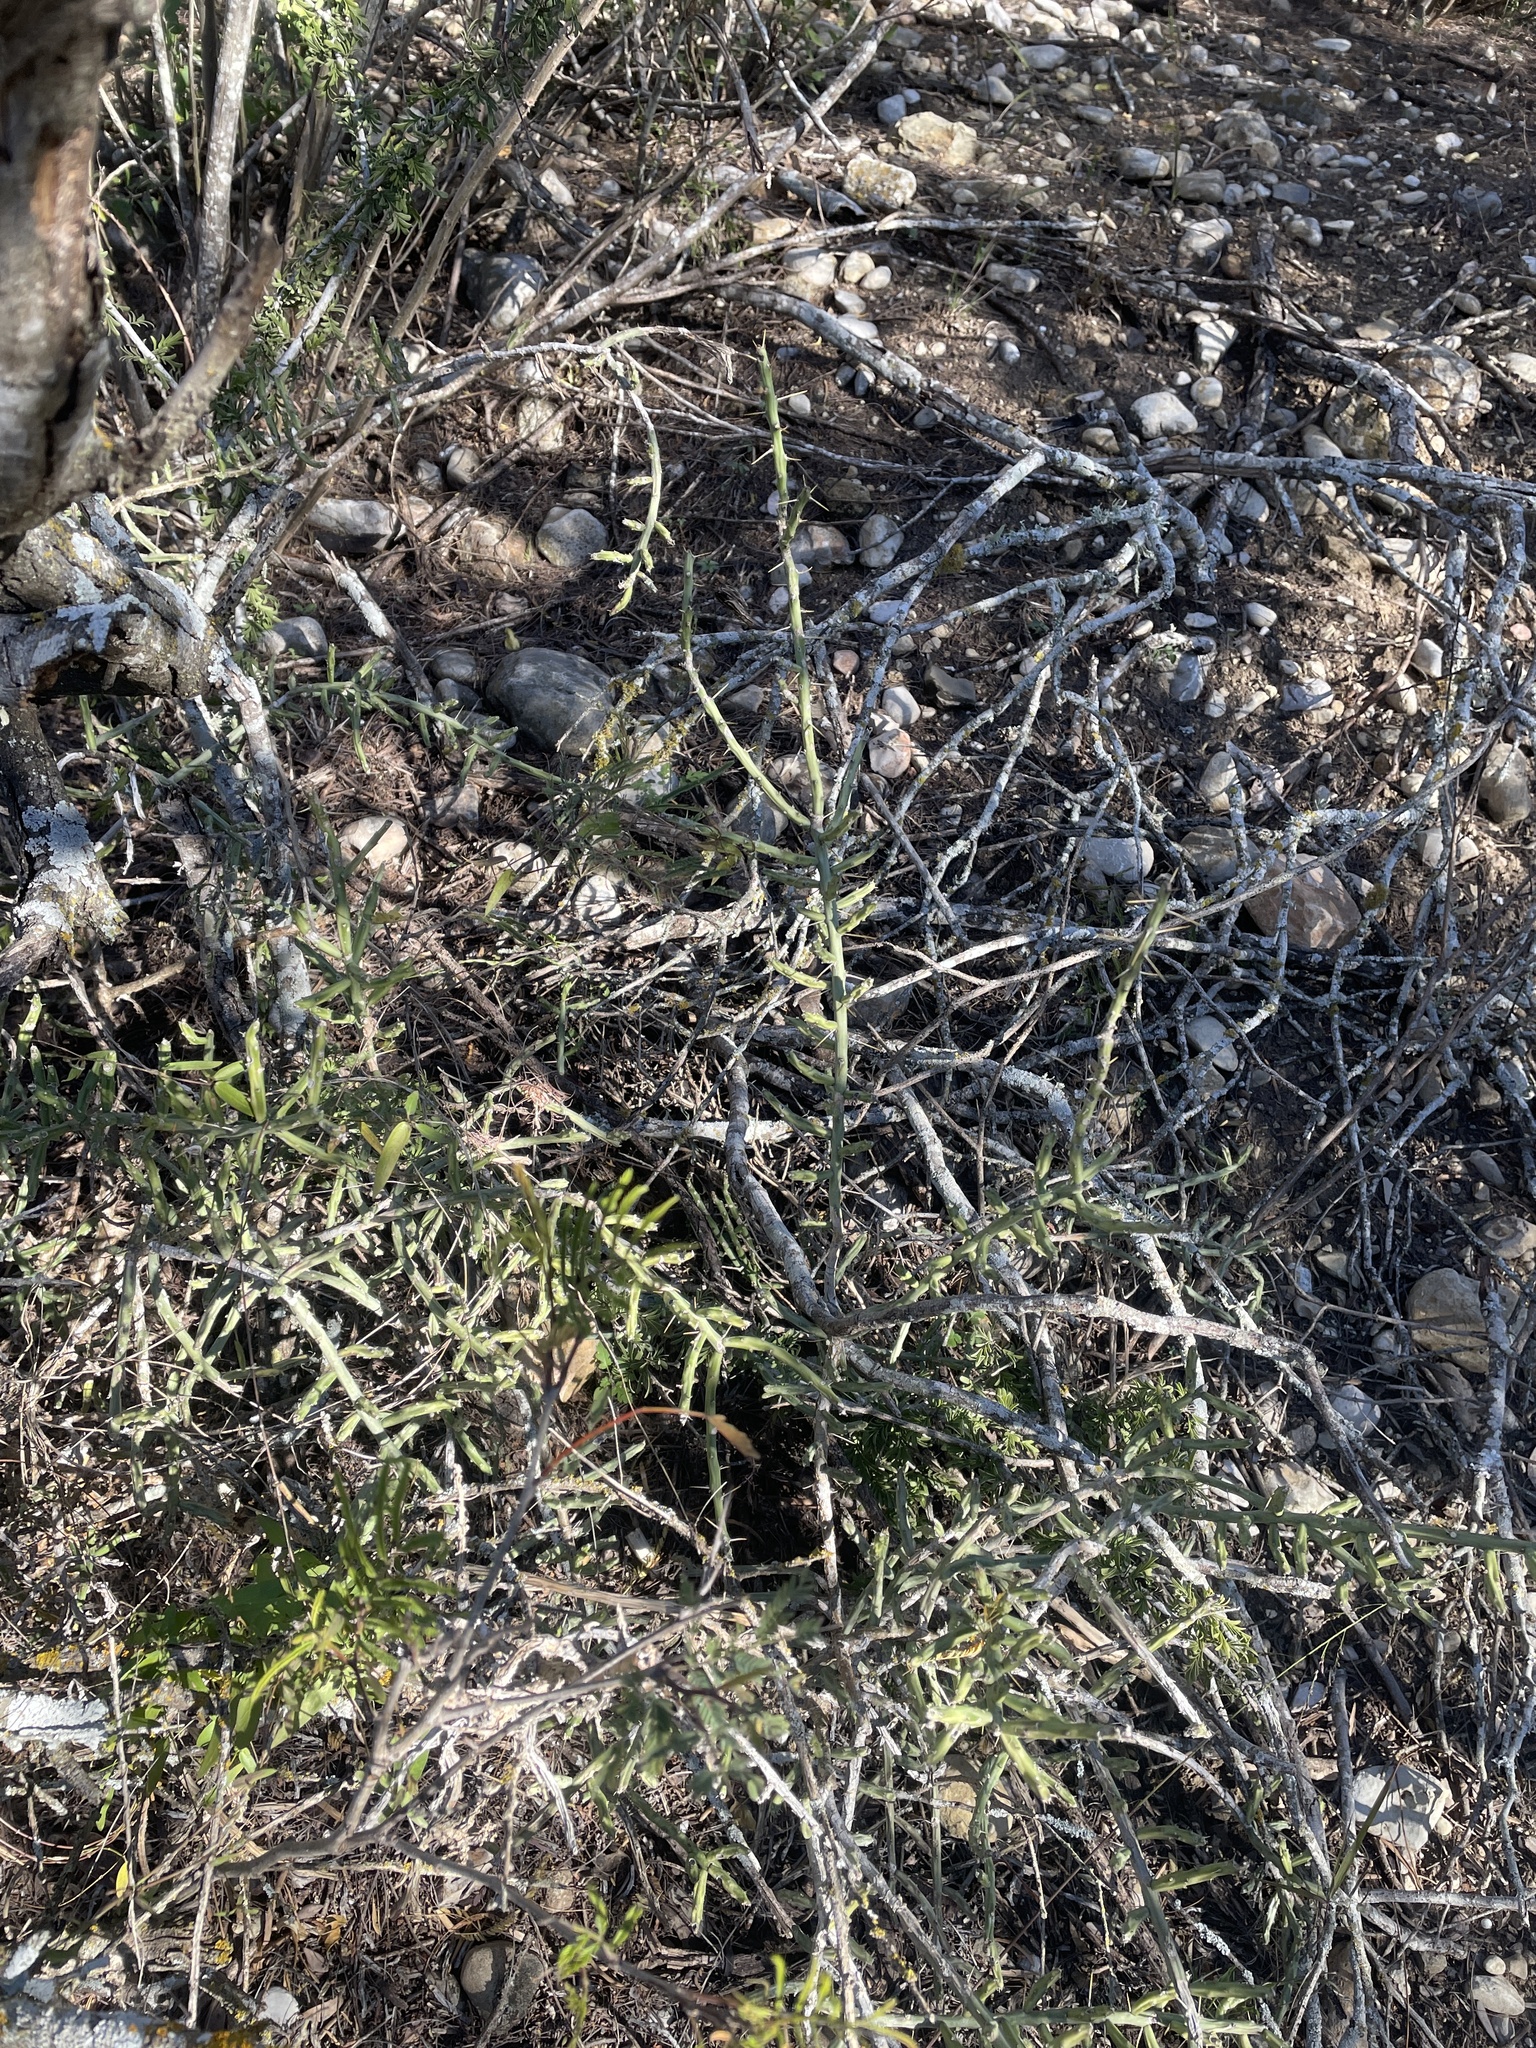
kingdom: Plantae
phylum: Tracheophyta
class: Magnoliopsida
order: Caryophyllales
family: Cactaceae
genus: Cylindropuntia
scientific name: Cylindropuntia leptocaulis
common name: Christmas cactus
